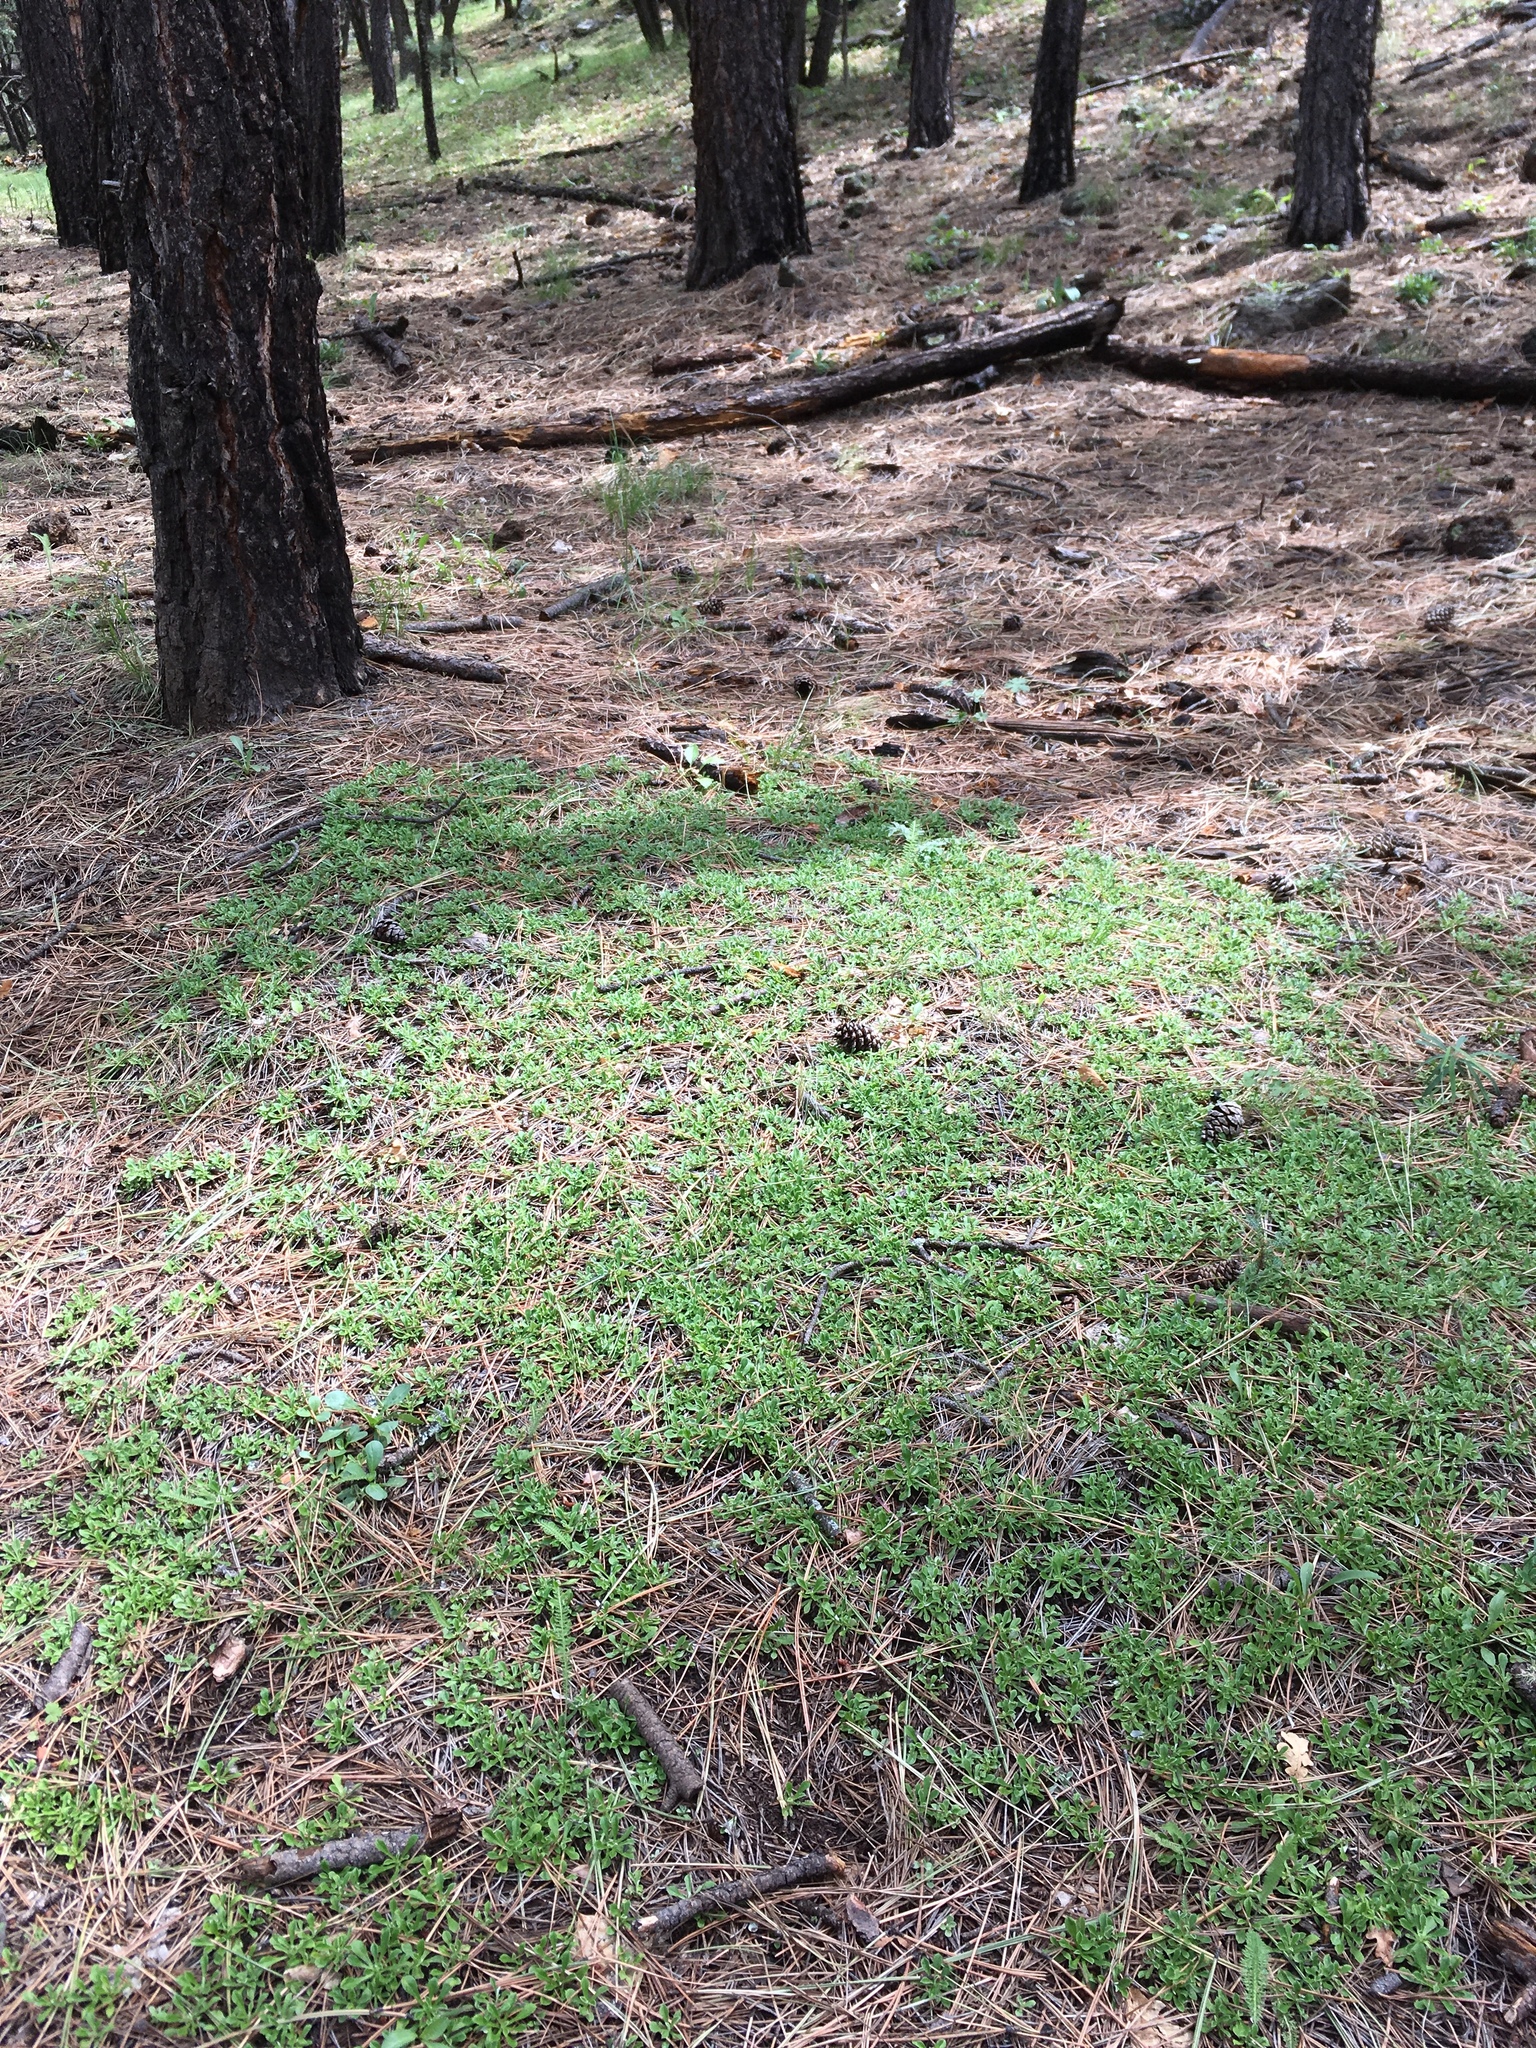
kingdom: Plantae
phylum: Tracheophyta
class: Magnoliopsida
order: Asterales
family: Asteraceae
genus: Antennaria
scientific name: Antennaria marginata
